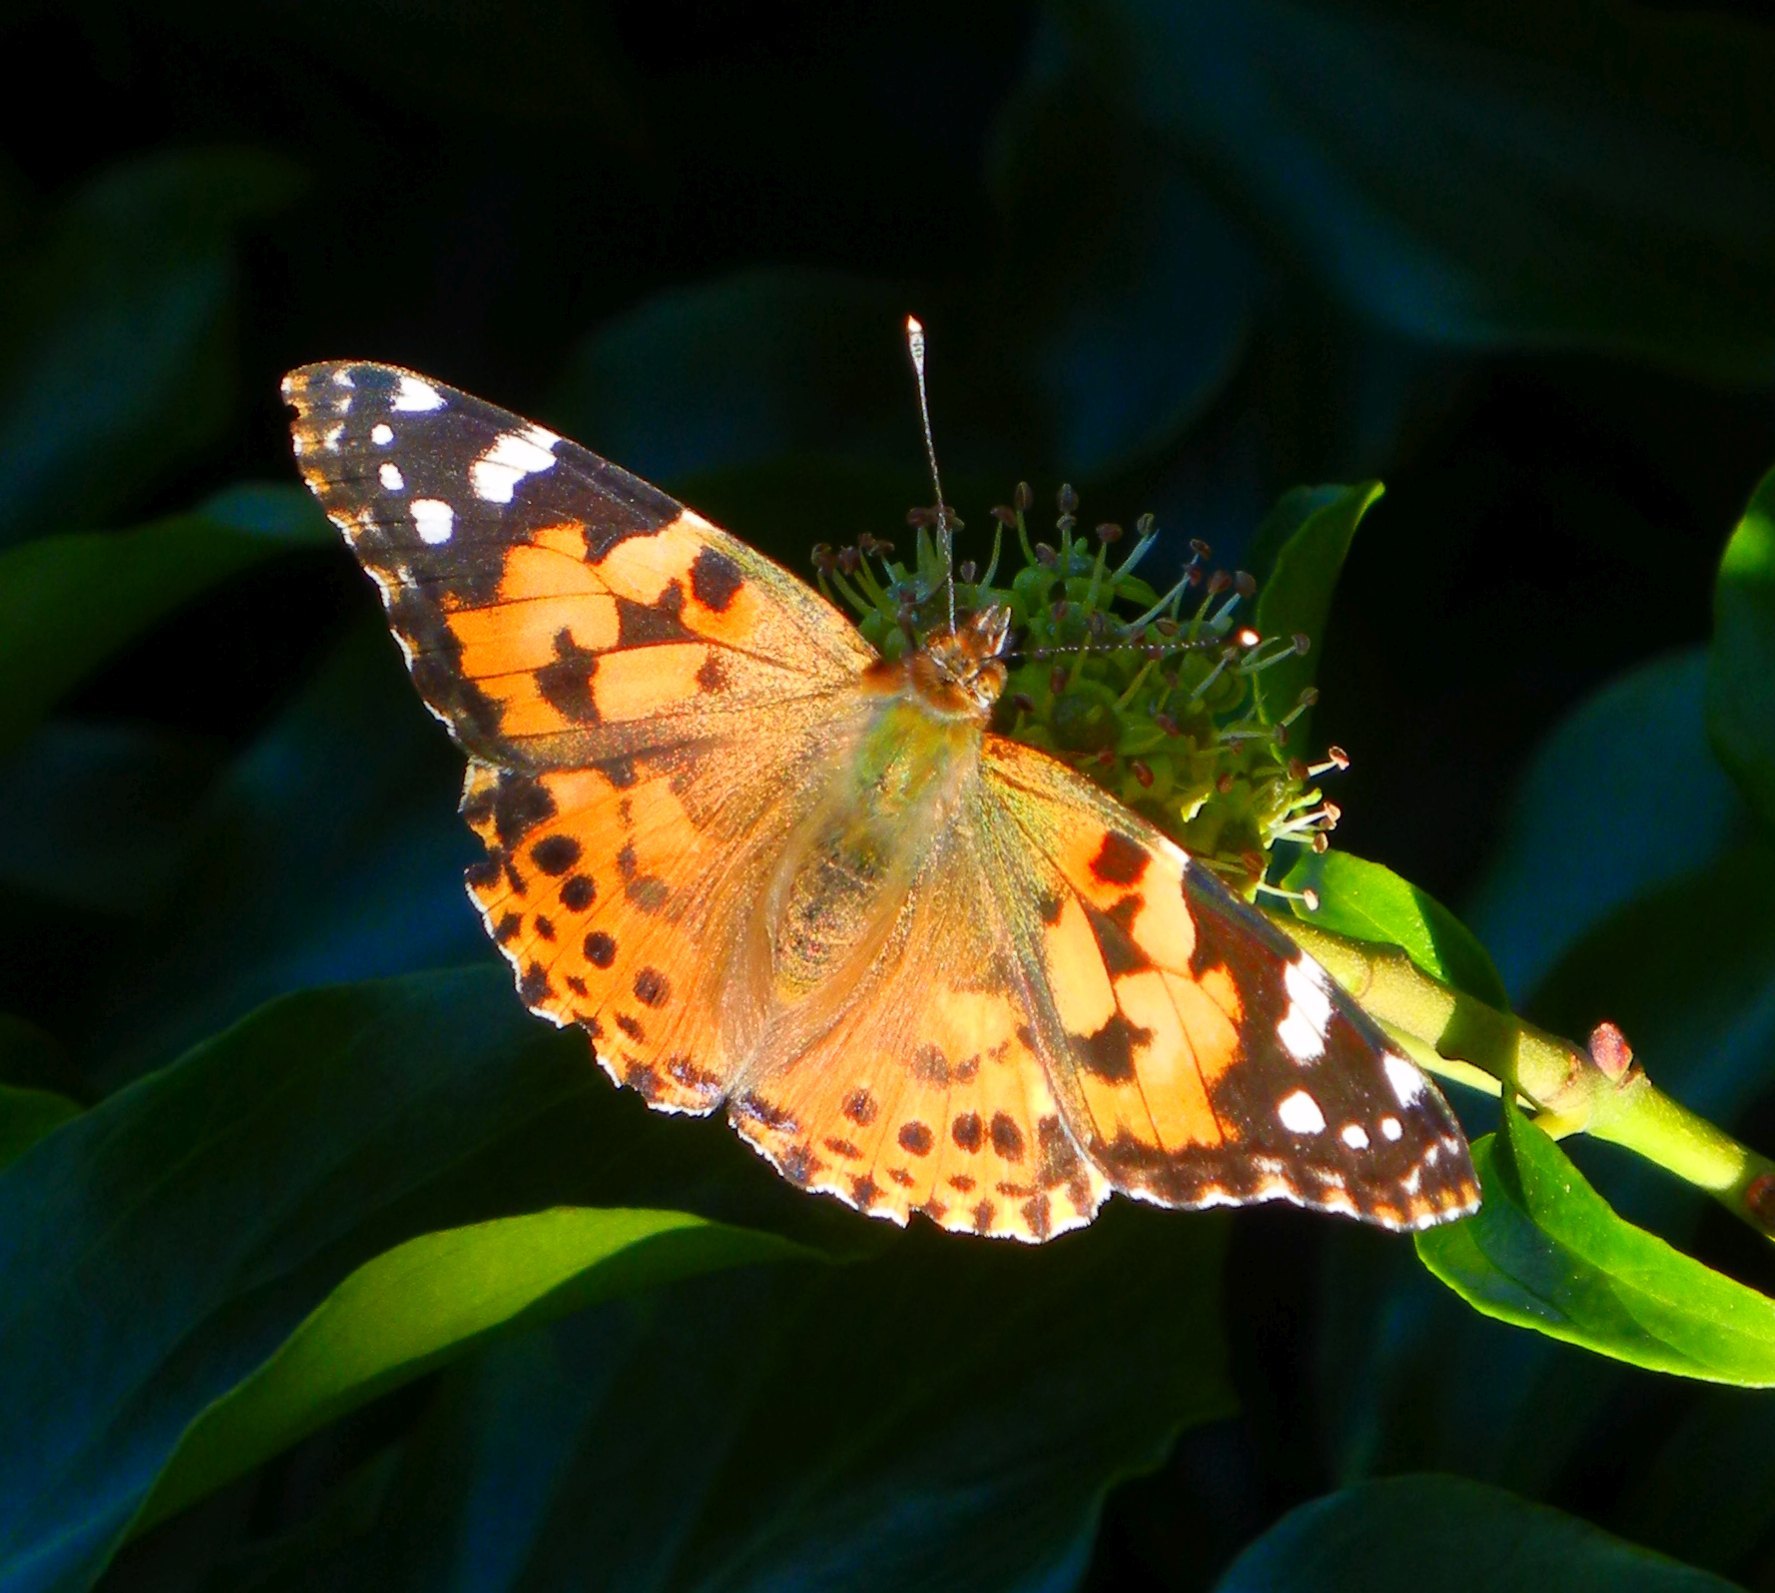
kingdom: Animalia
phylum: Arthropoda
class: Insecta
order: Lepidoptera
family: Nymphalidae
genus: Vanessa
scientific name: Vanessa cardui
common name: Painted lady
